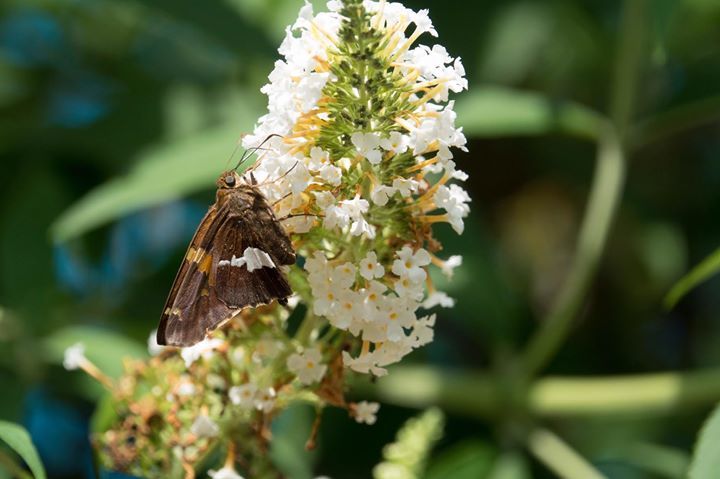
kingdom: Animalia
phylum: Arthropoda
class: Insecta
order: Lepidoptera
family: Hesperiidae
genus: Epargyreus
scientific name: Epargyreus clarus
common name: Silver-spotted skipper
